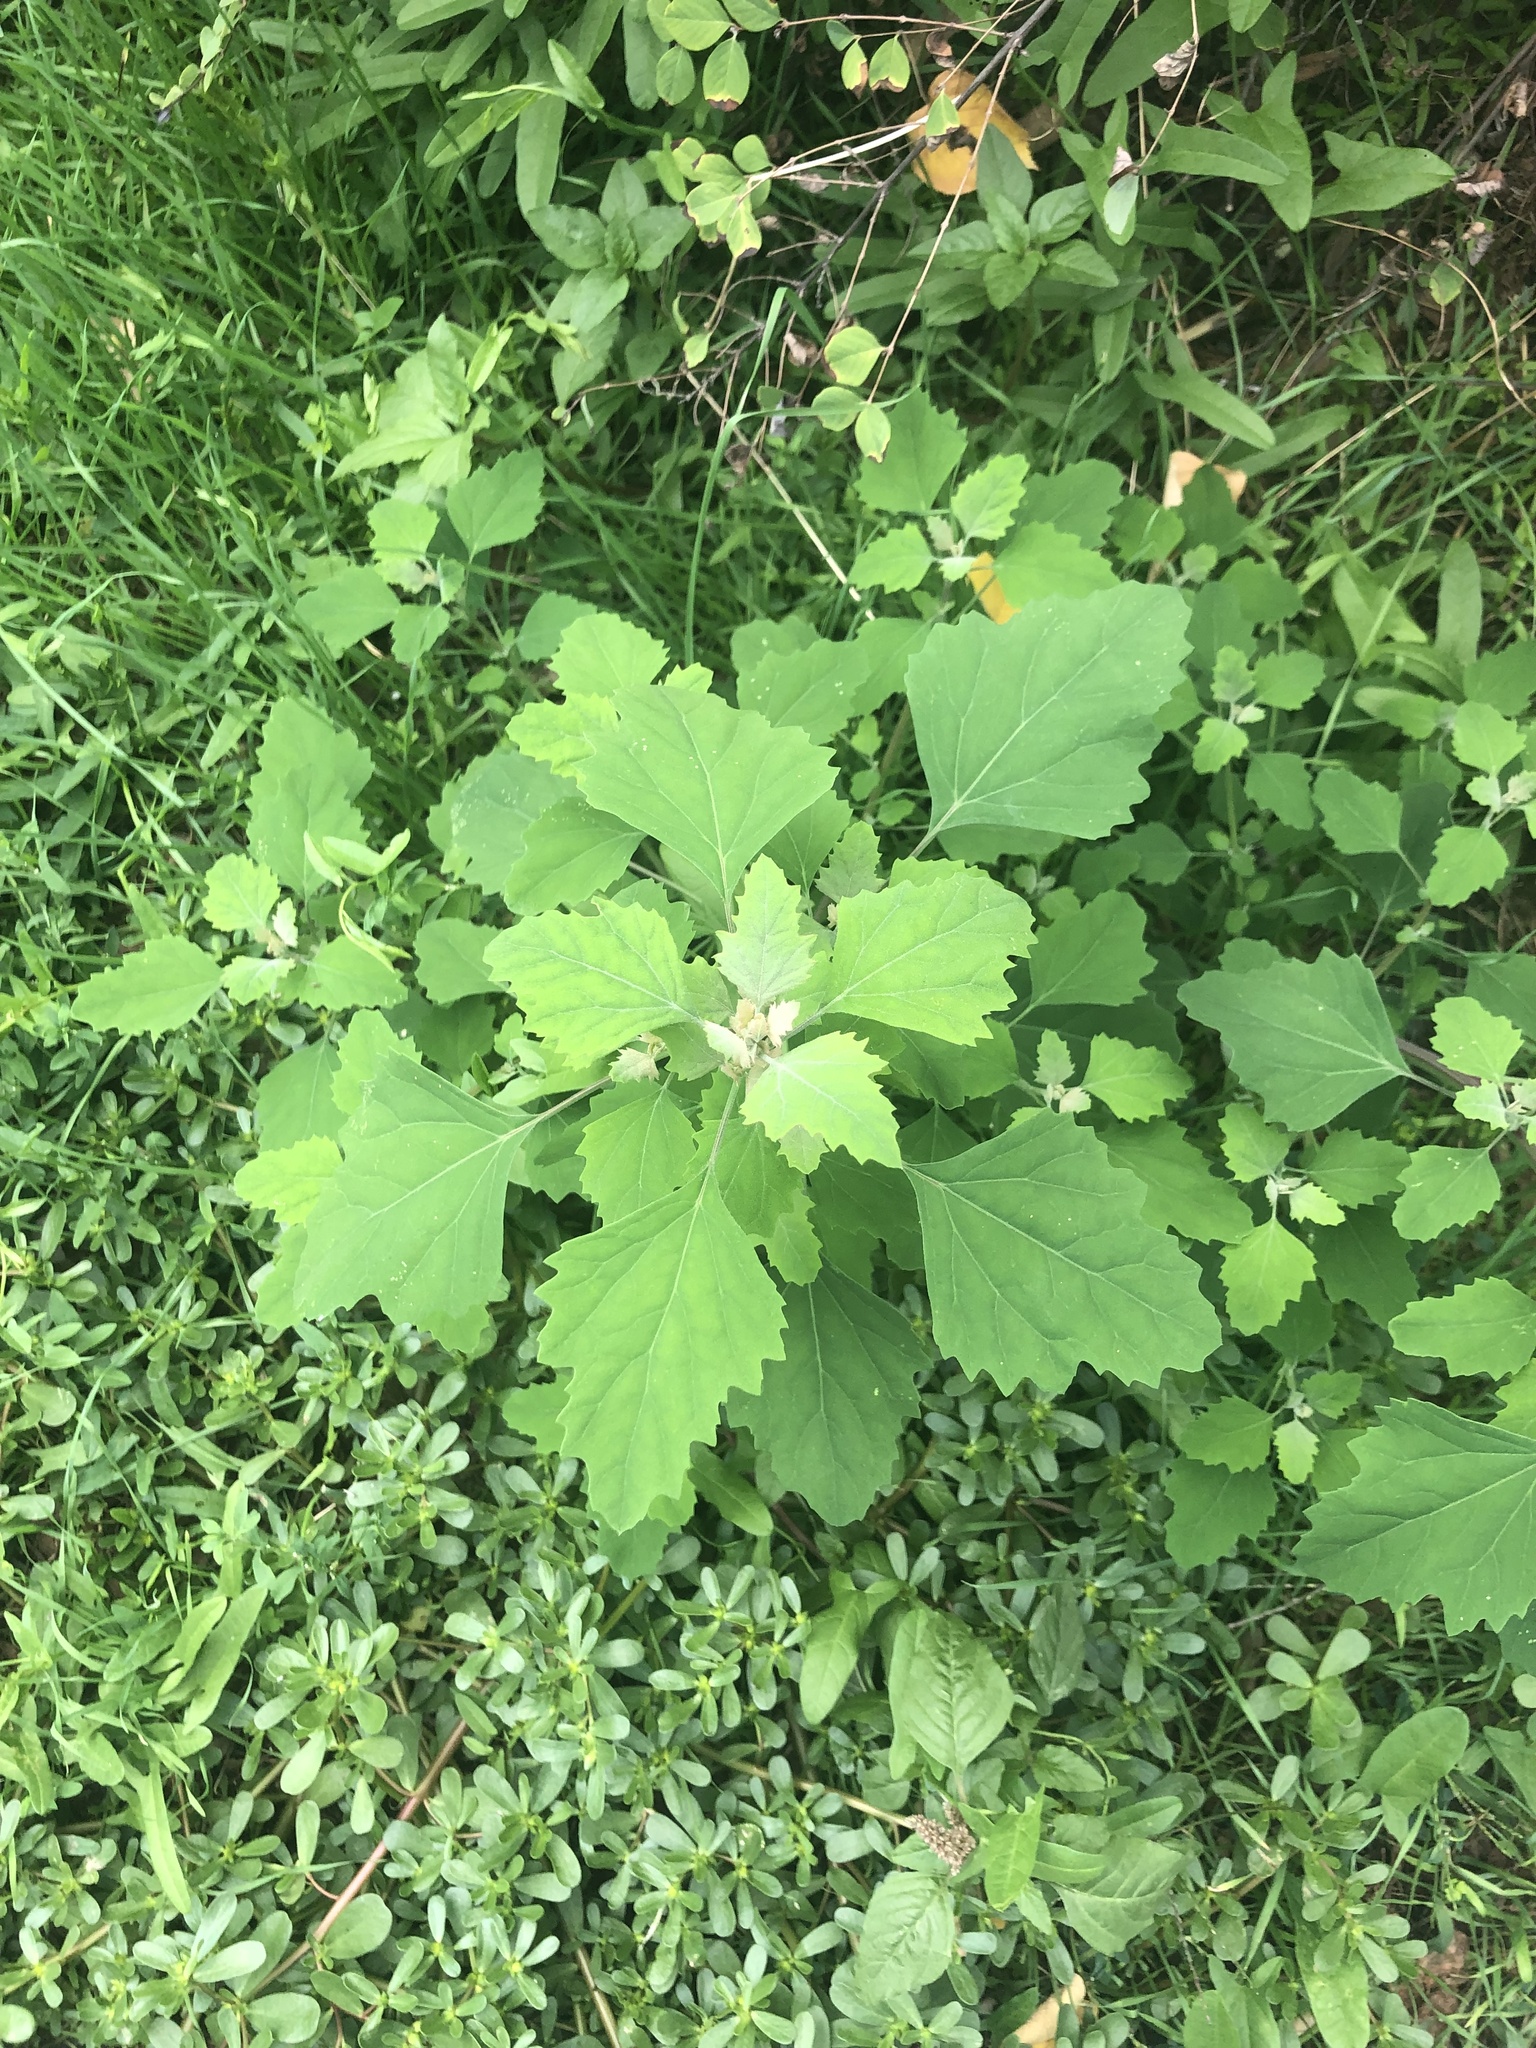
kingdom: Plantae
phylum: Tracheophyta
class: Magnoliopsida
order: Caryophyllales
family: Amaranthaceae
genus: Chenopodium
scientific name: Chenopodium album
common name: Fat-hen
